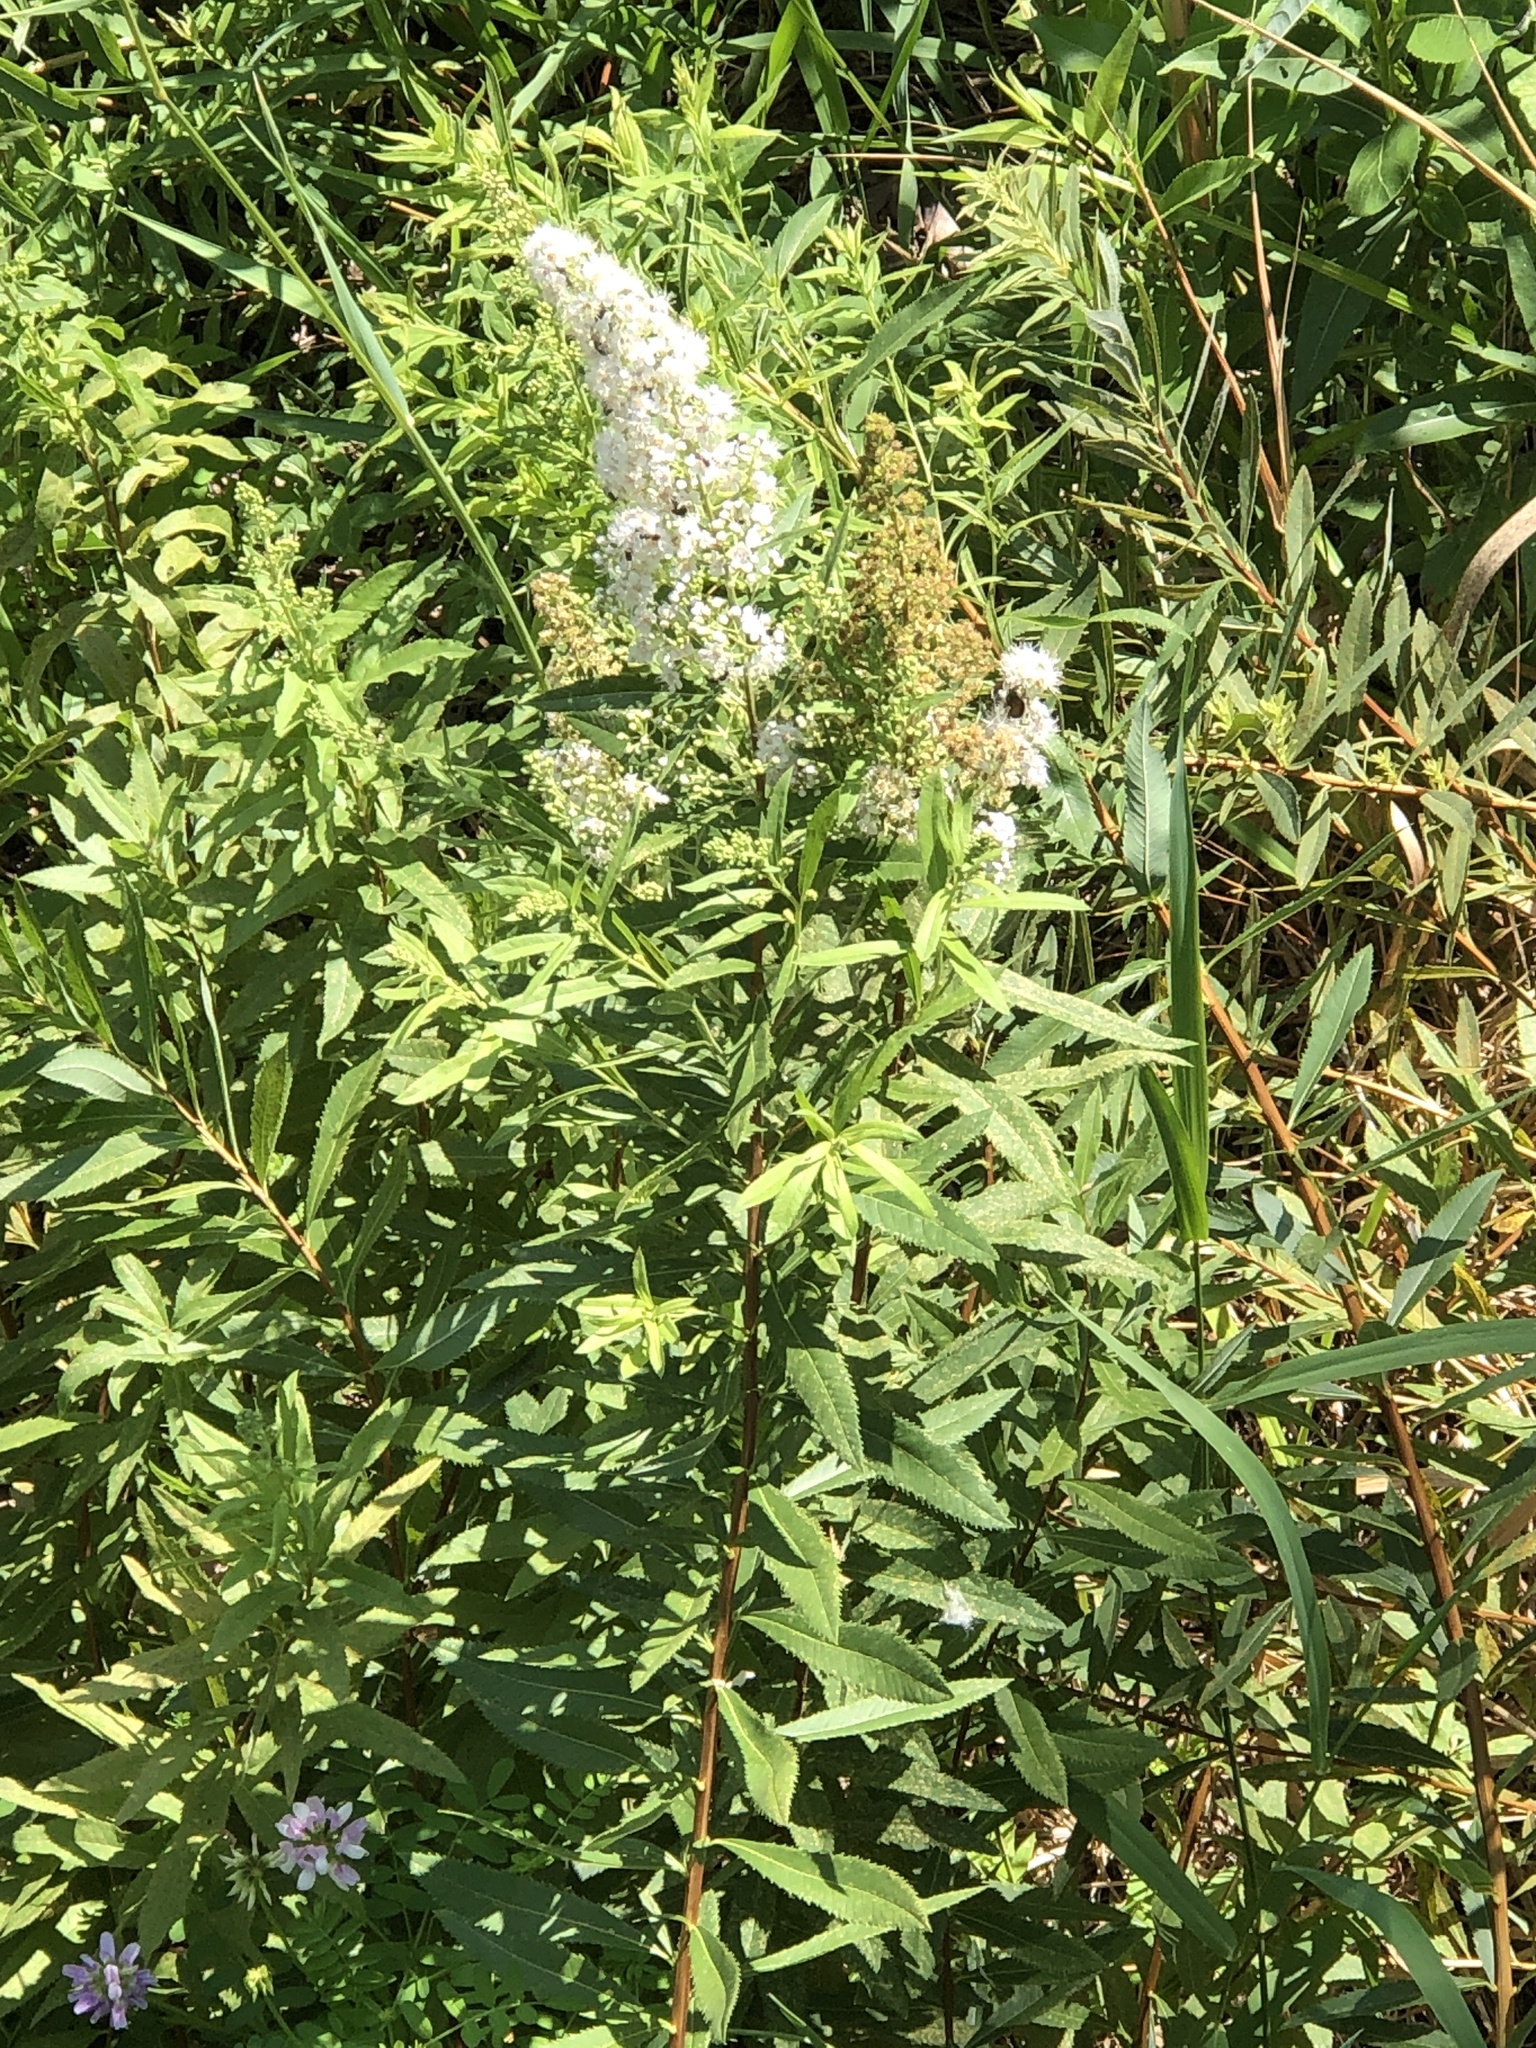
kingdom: Plantae
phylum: Tracheophyta
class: Magnoliopsida
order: Rosales
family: Rosaceae
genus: Spiraea
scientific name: Spiraea alba
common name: Pale bridewort
